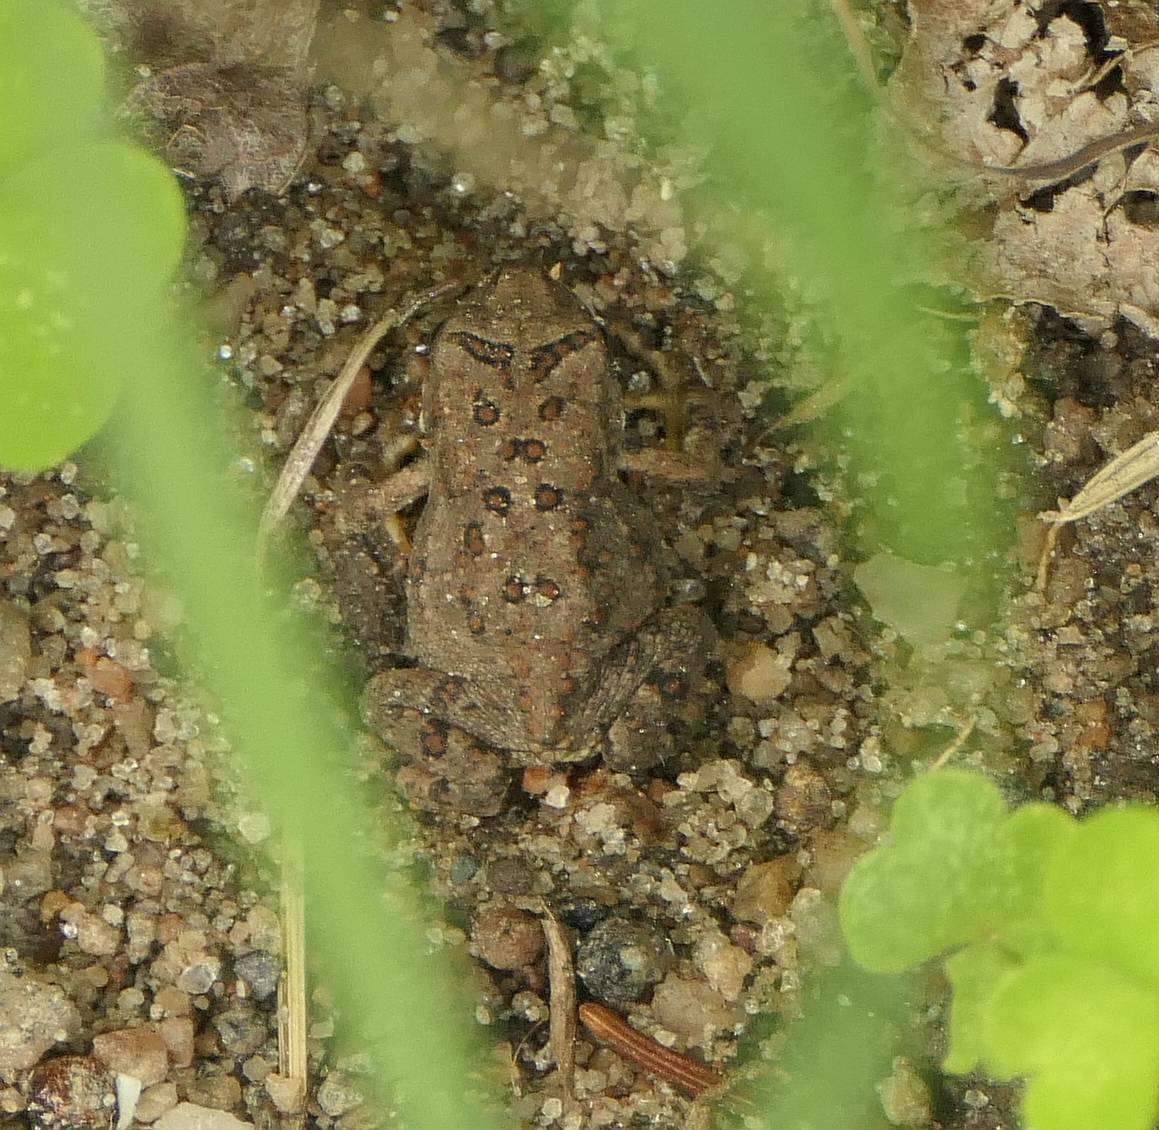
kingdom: Animalia
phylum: Chordata
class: Amphibia
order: Anura
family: Bufonidae
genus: Anaxyrus
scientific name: Anaxyrus americanus
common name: American toad
